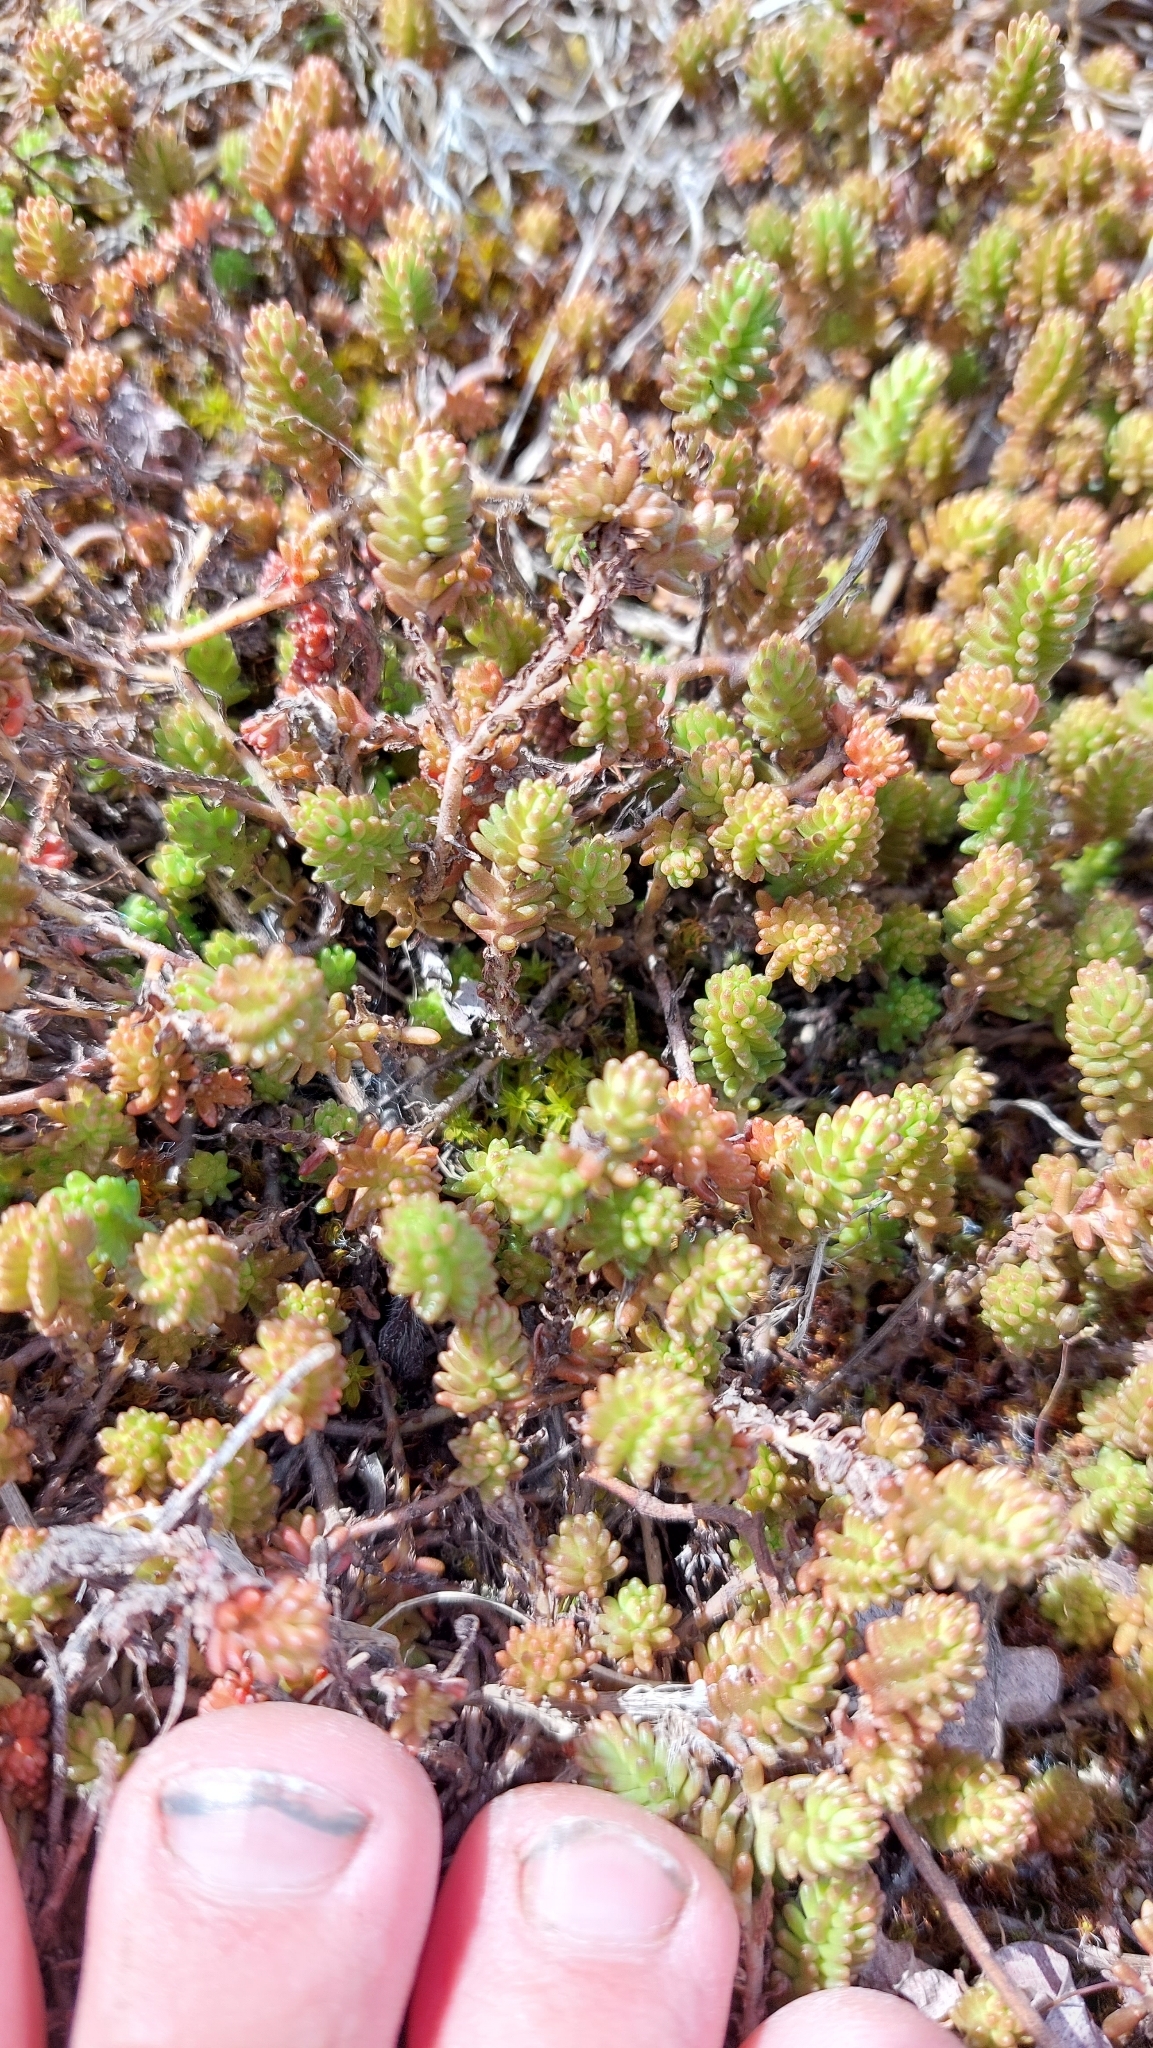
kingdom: Plantae
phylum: Tracheophyta
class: Magnoliopsida
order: Saxifragales
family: Crassulaceae
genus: Sedum
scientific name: Sedum sexangulare
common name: Tasteless stonecrop
